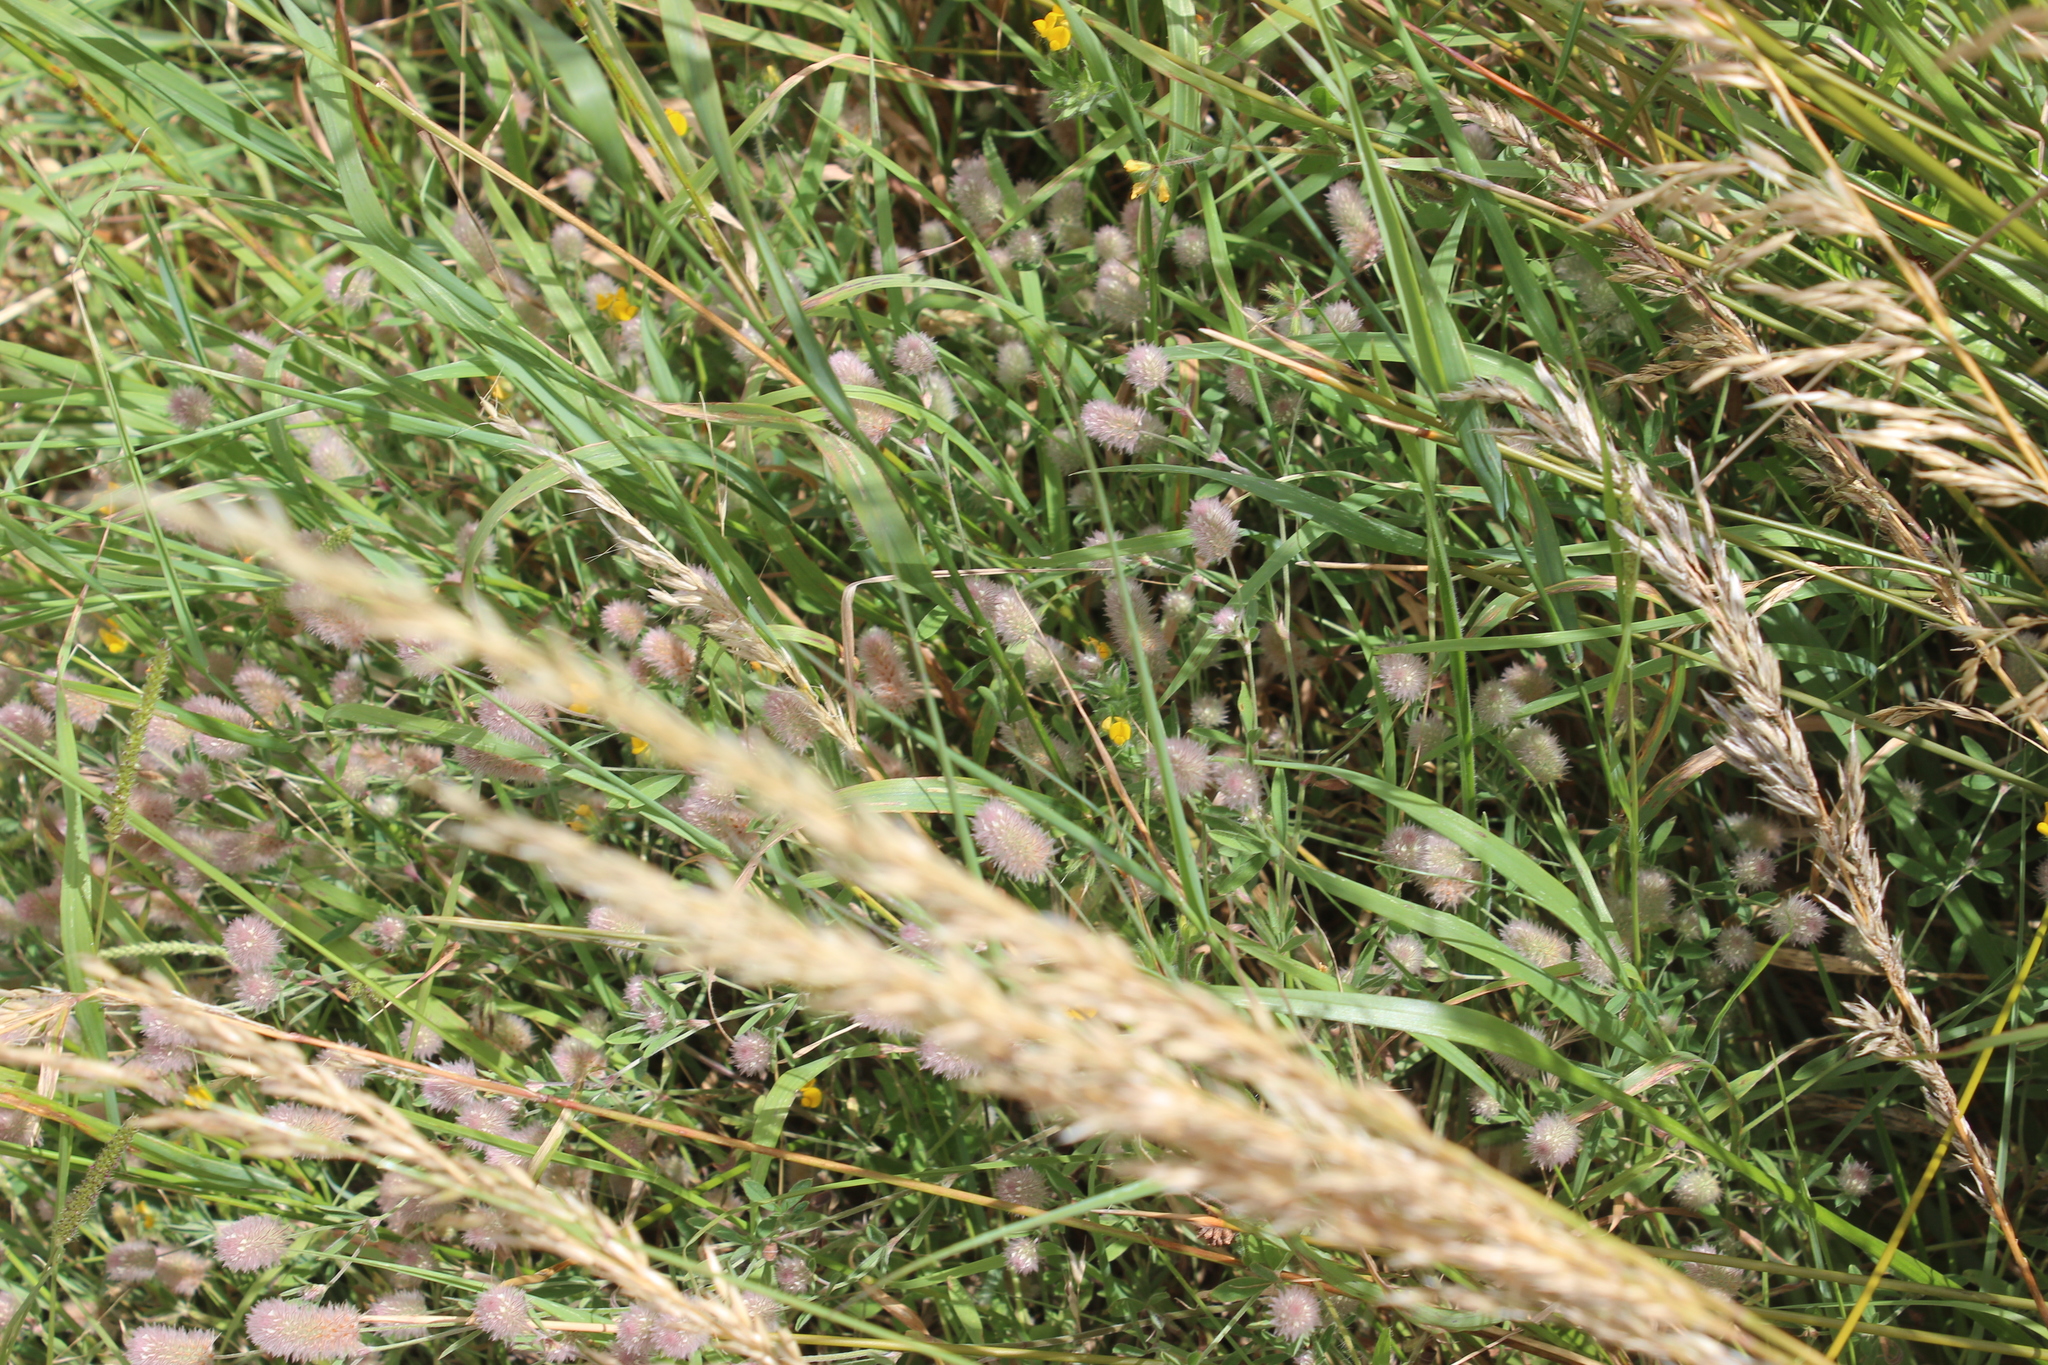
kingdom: Plantae
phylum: Tracheophyta
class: Magnoliopsida
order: Fabales
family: Fabaceae
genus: Trifolium
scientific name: Trifolium arvense
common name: Hare's-foot clover
